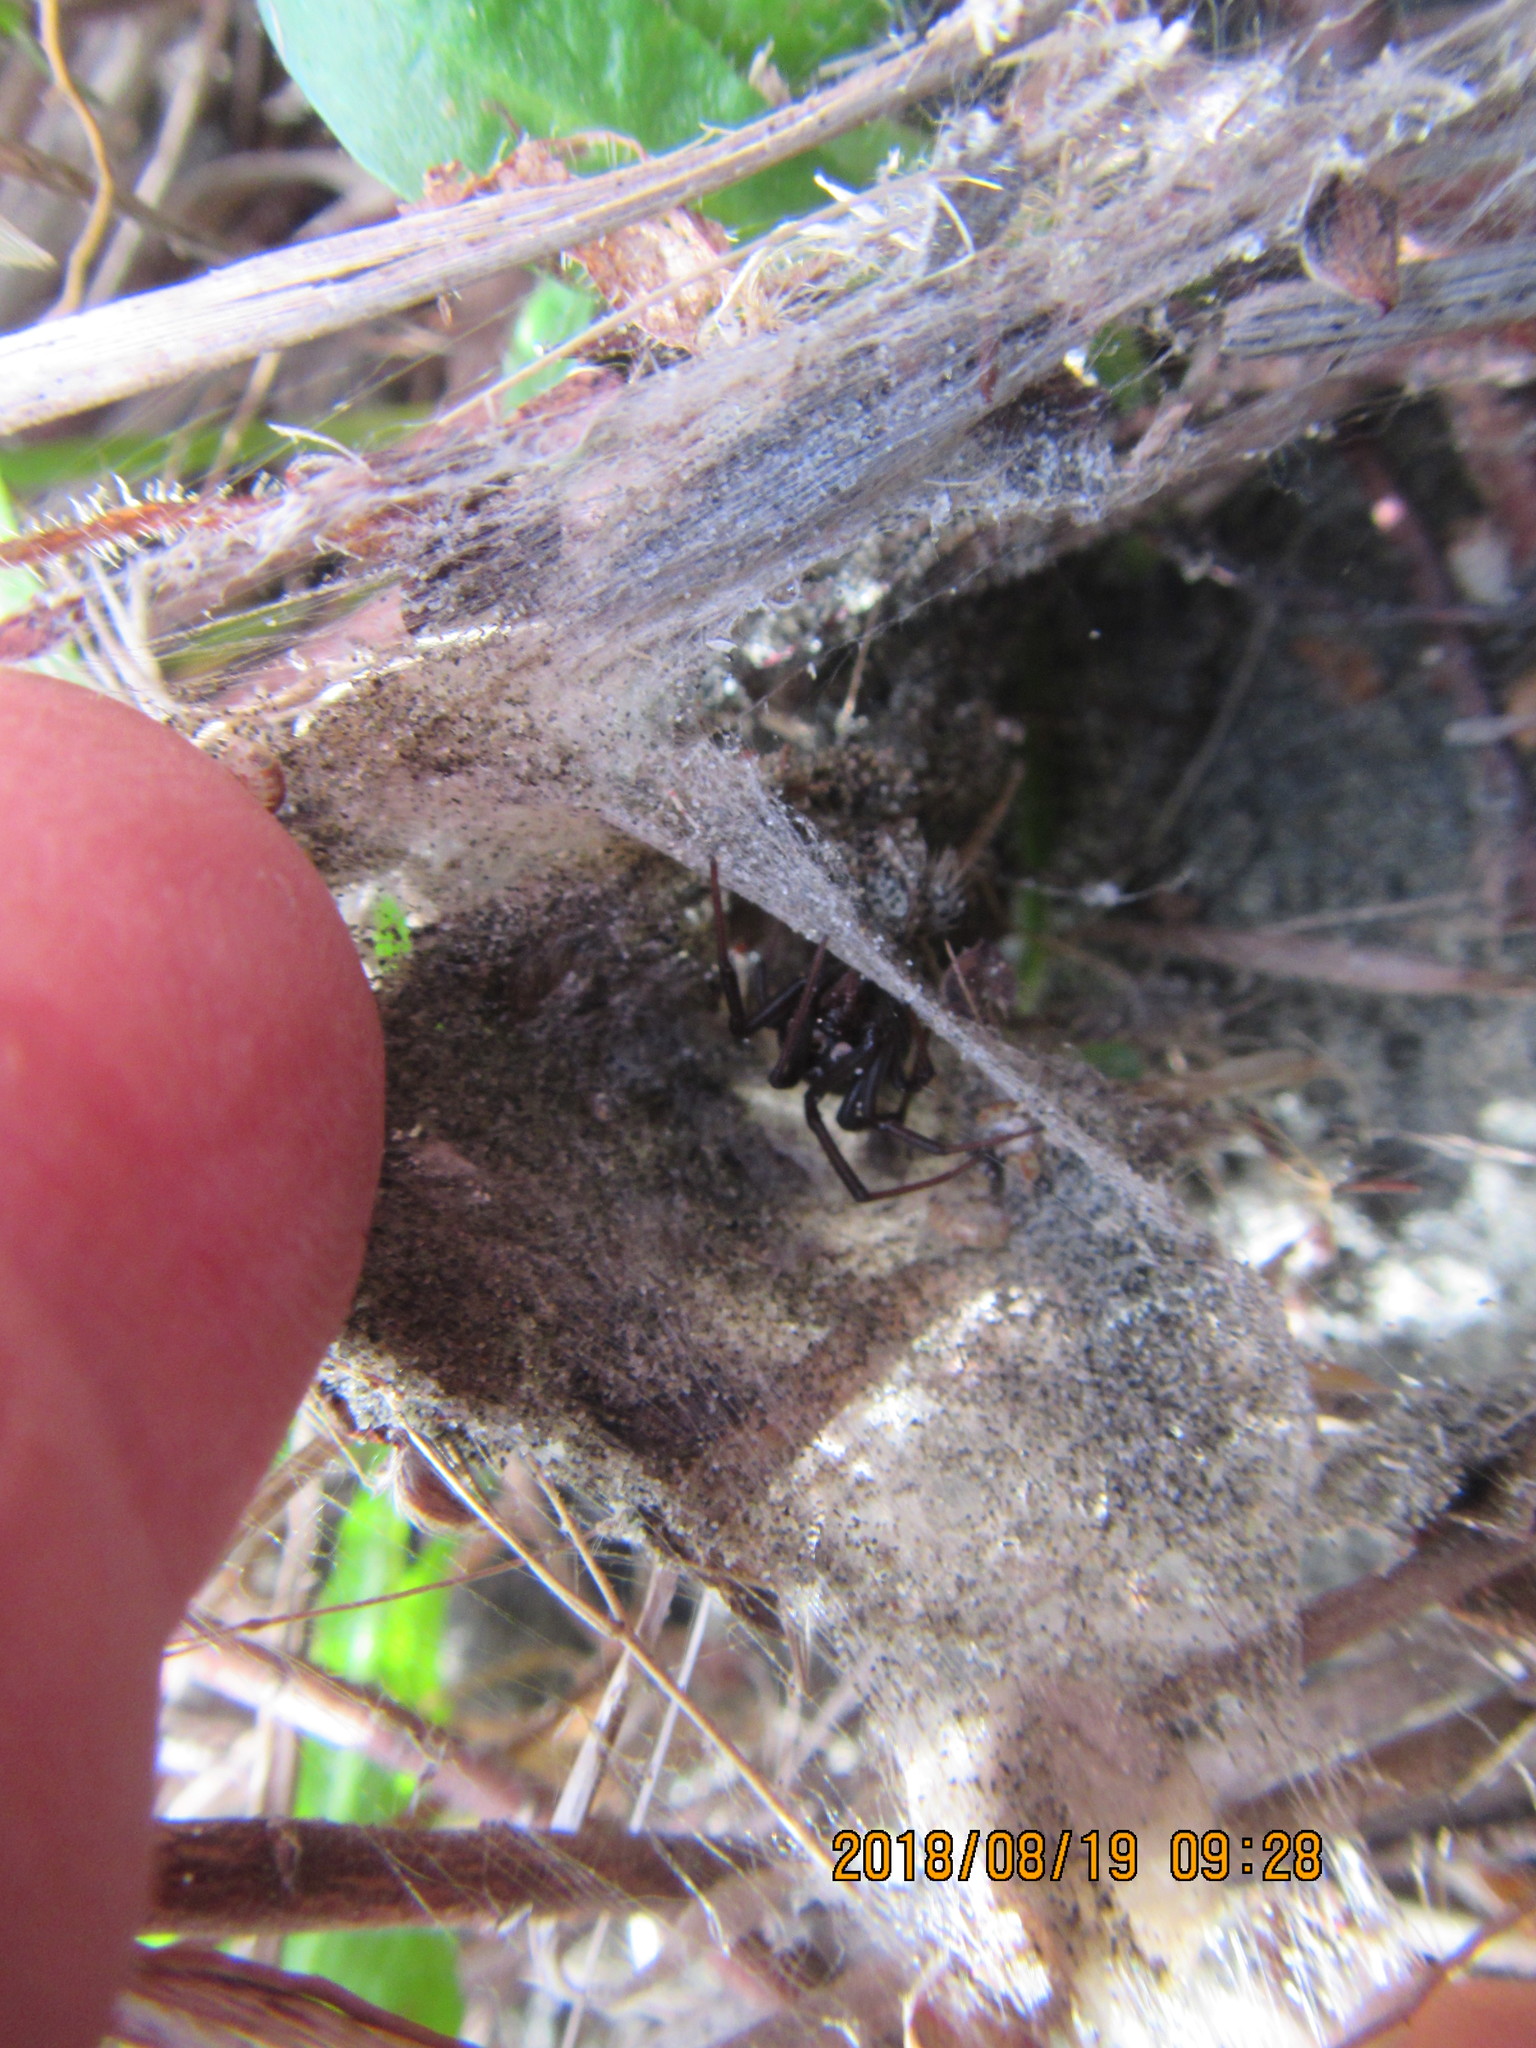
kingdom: Animalia
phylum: Arthropoda
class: Arachnida
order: Araneae
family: Theridiidae
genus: Latrodectus
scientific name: Latrodectus katipo
